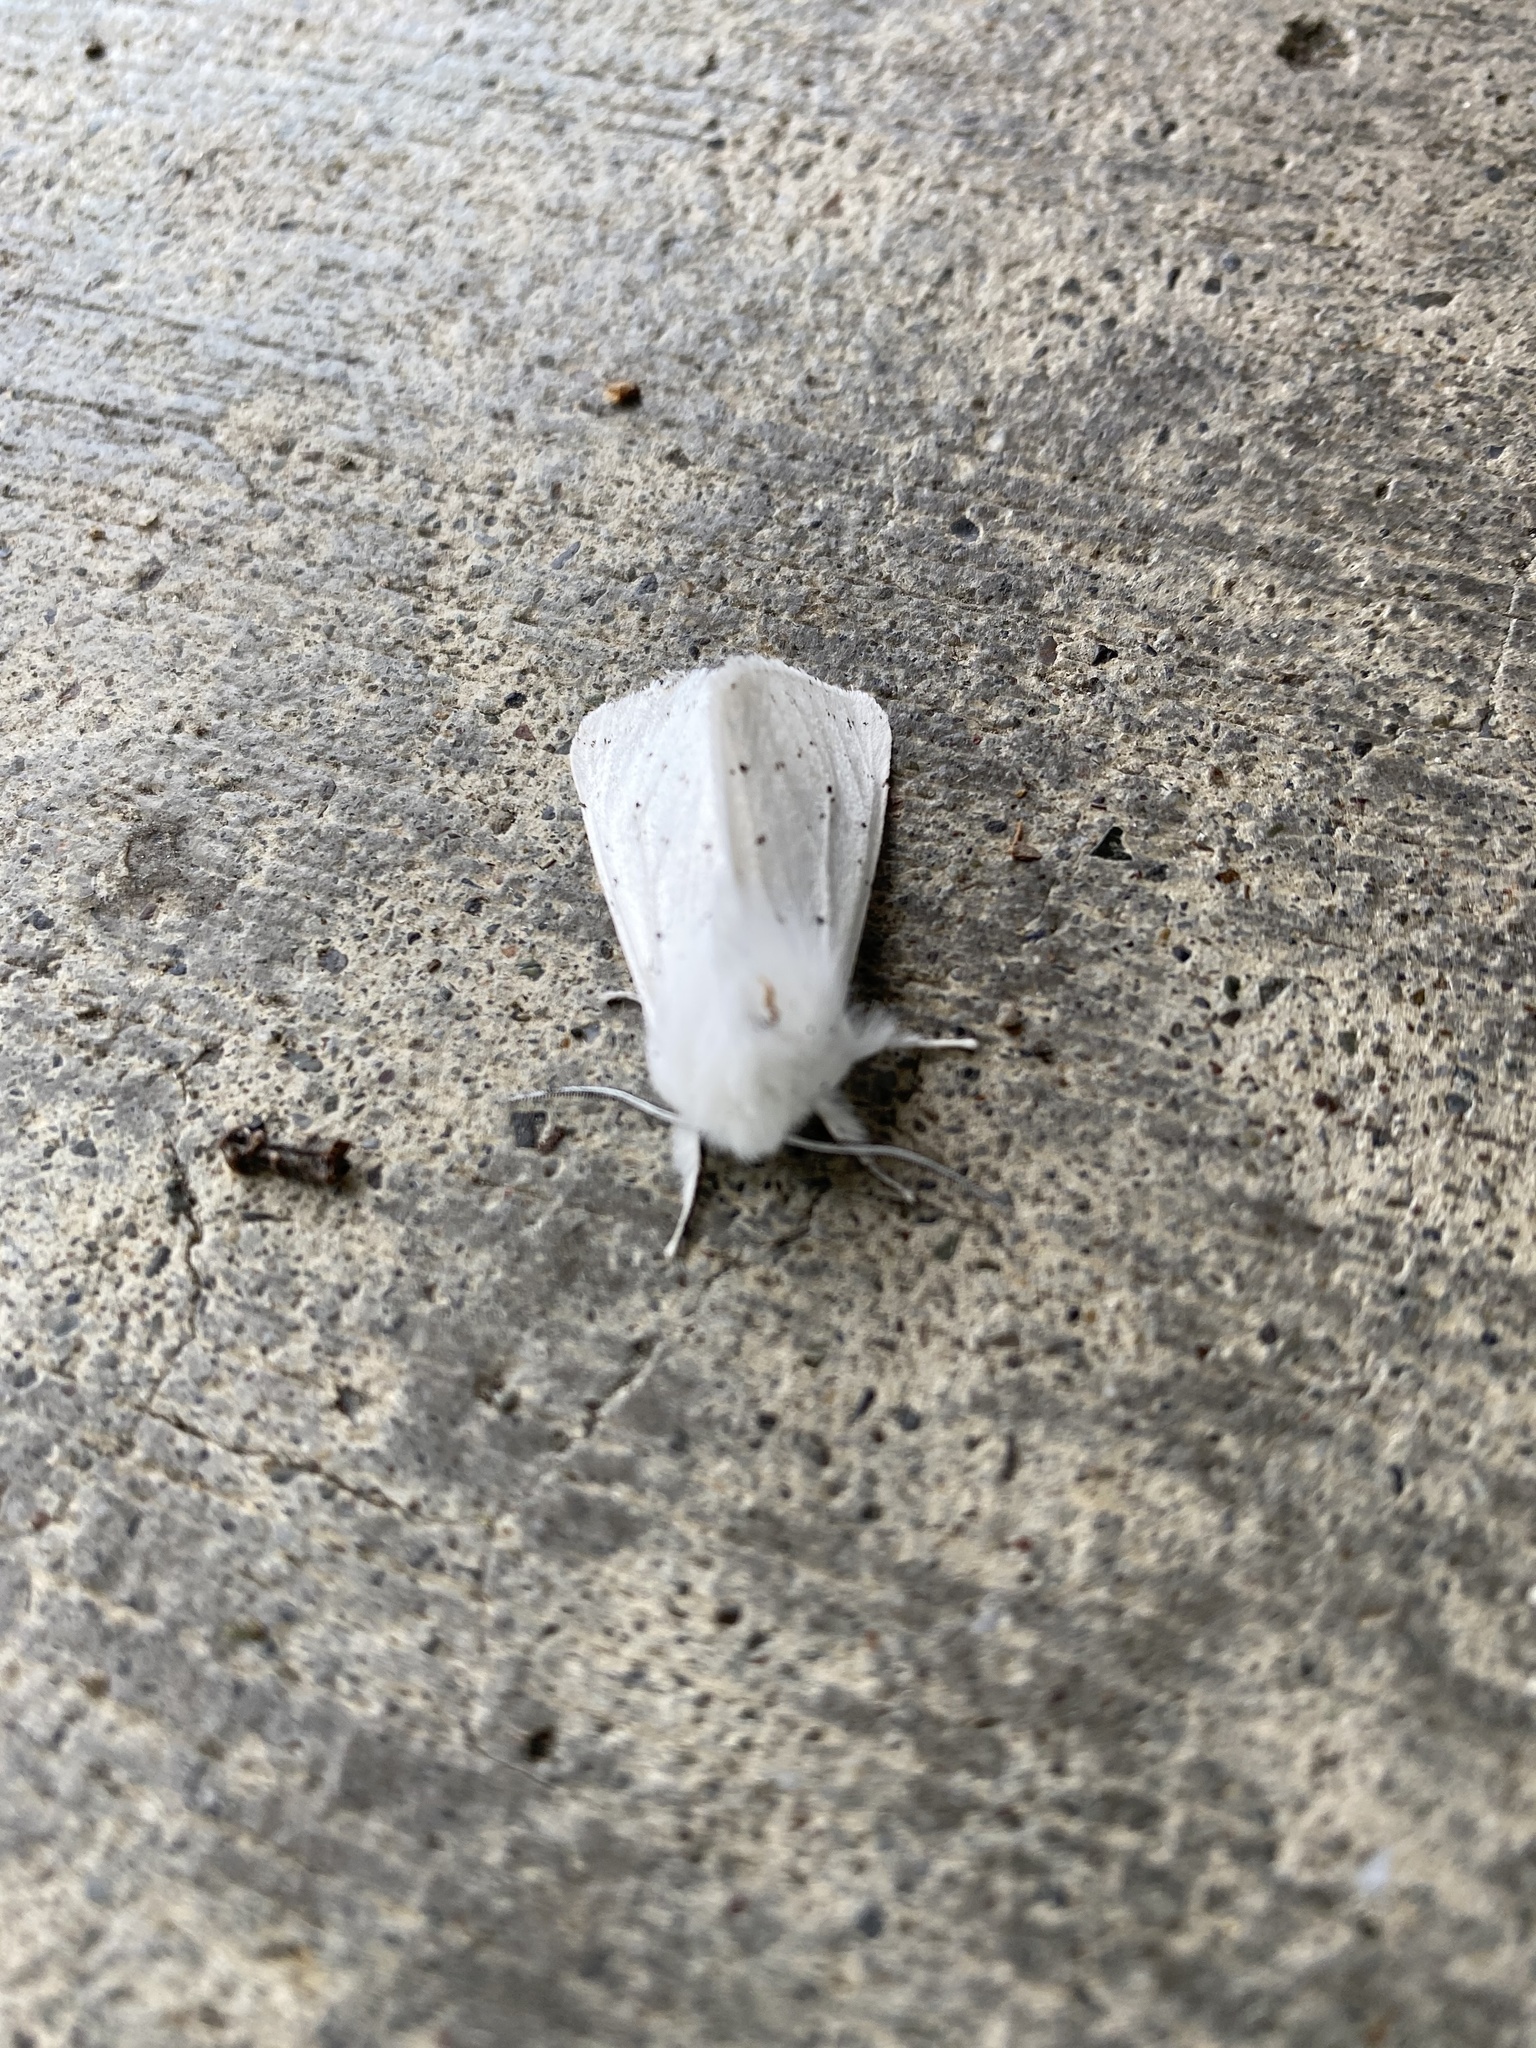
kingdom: Animalia
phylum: Arthropoda
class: Insecta
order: Lepidoptera
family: Erebidae
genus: Spilosoma
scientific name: Spilosoma vestalis
